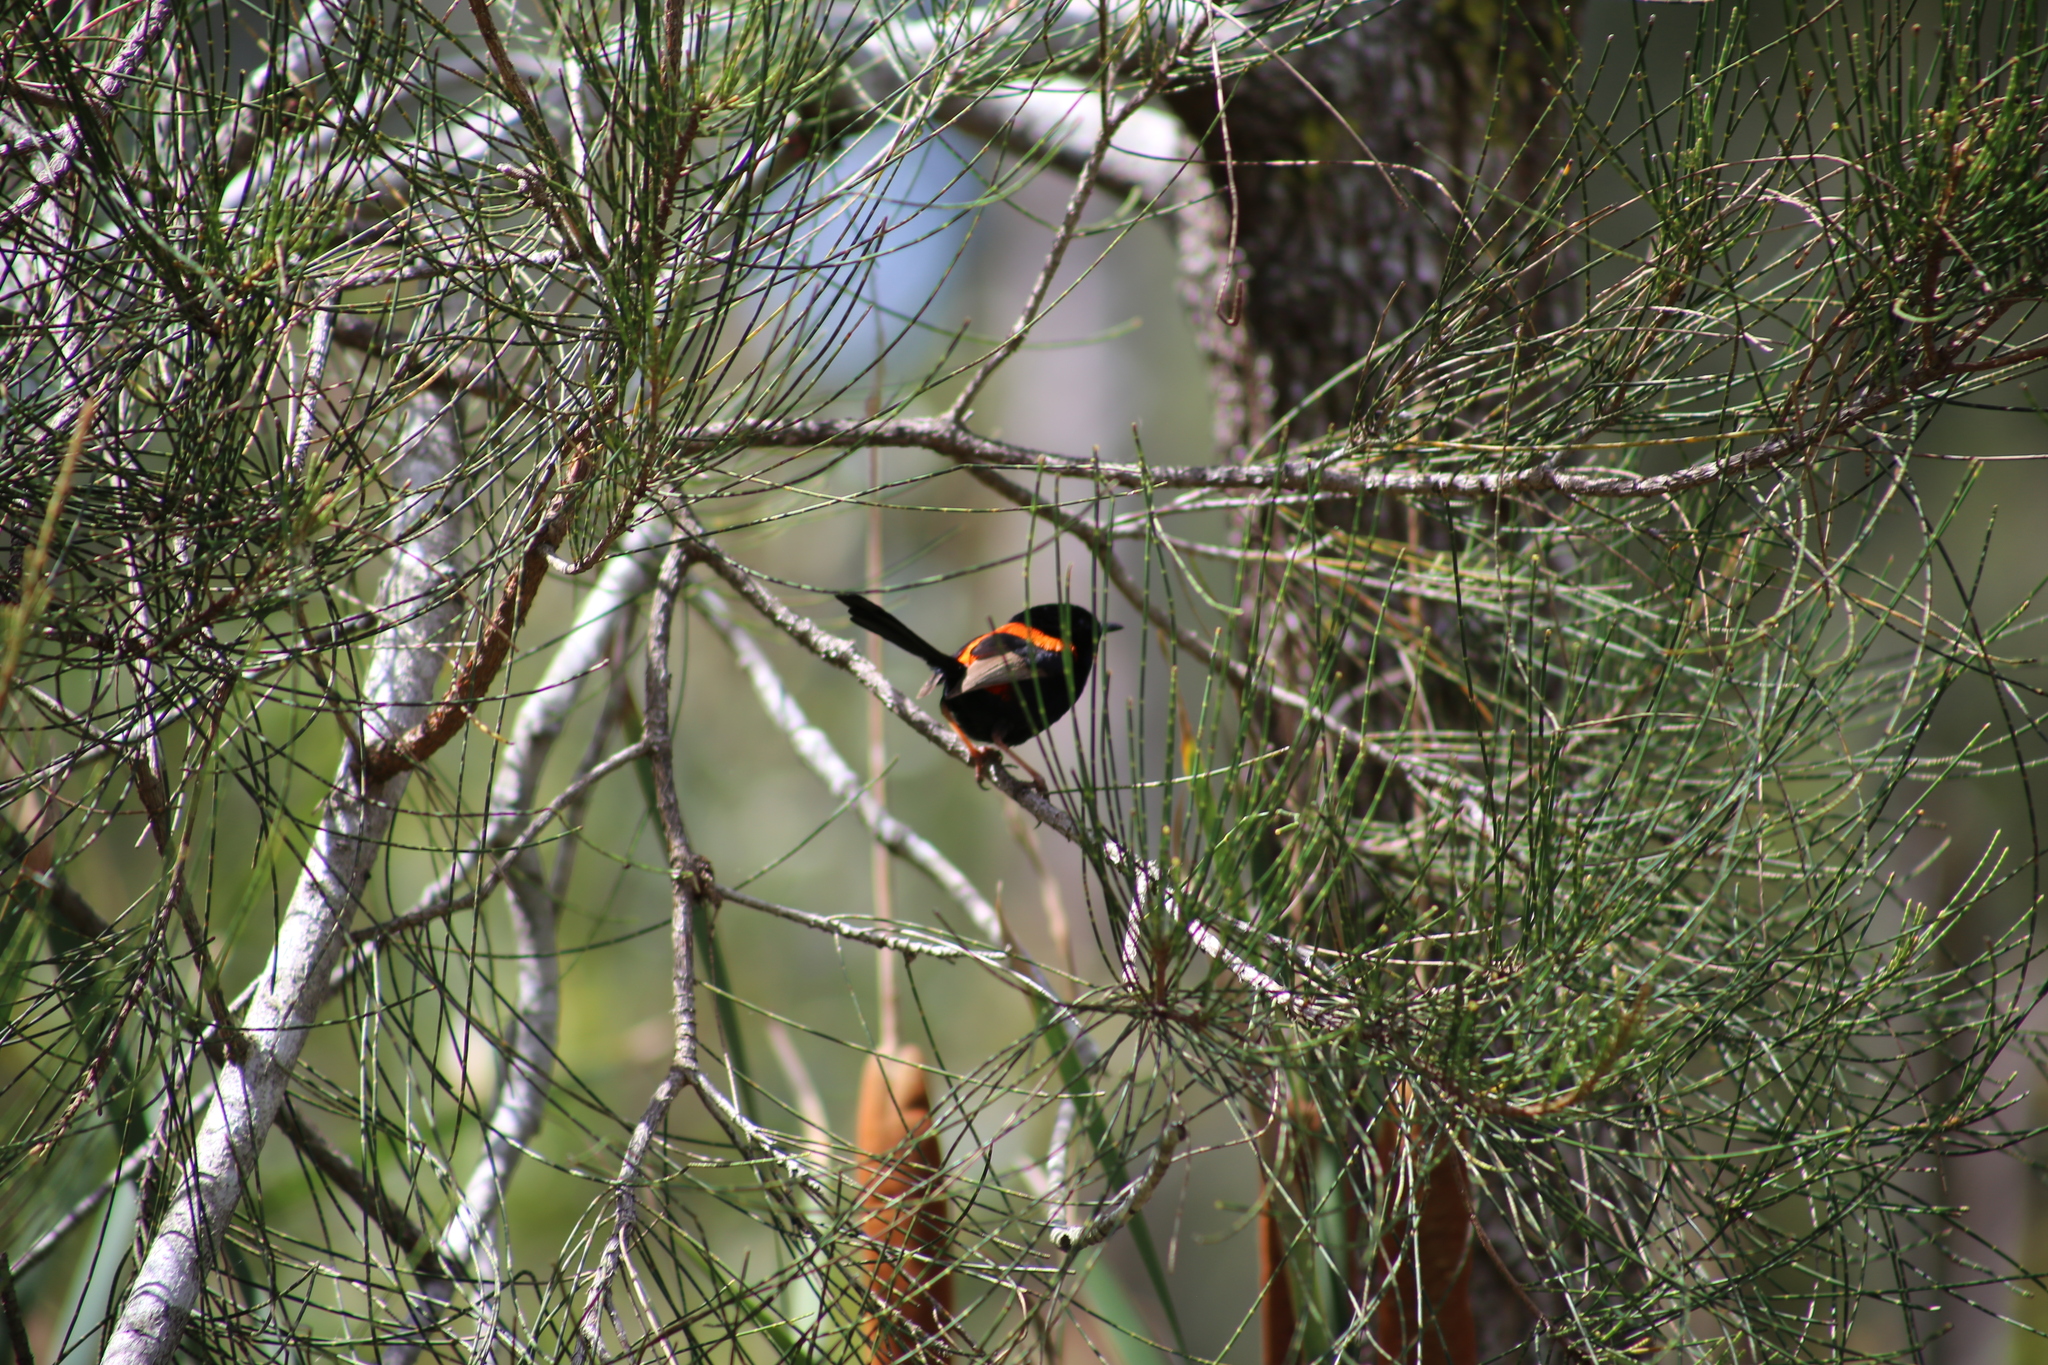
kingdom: Animalia
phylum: Chordata
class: Aves
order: Passeriformes
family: Maluridae
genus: Malurus
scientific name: Malurus melanocephalus
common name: Red-backed fairywren
